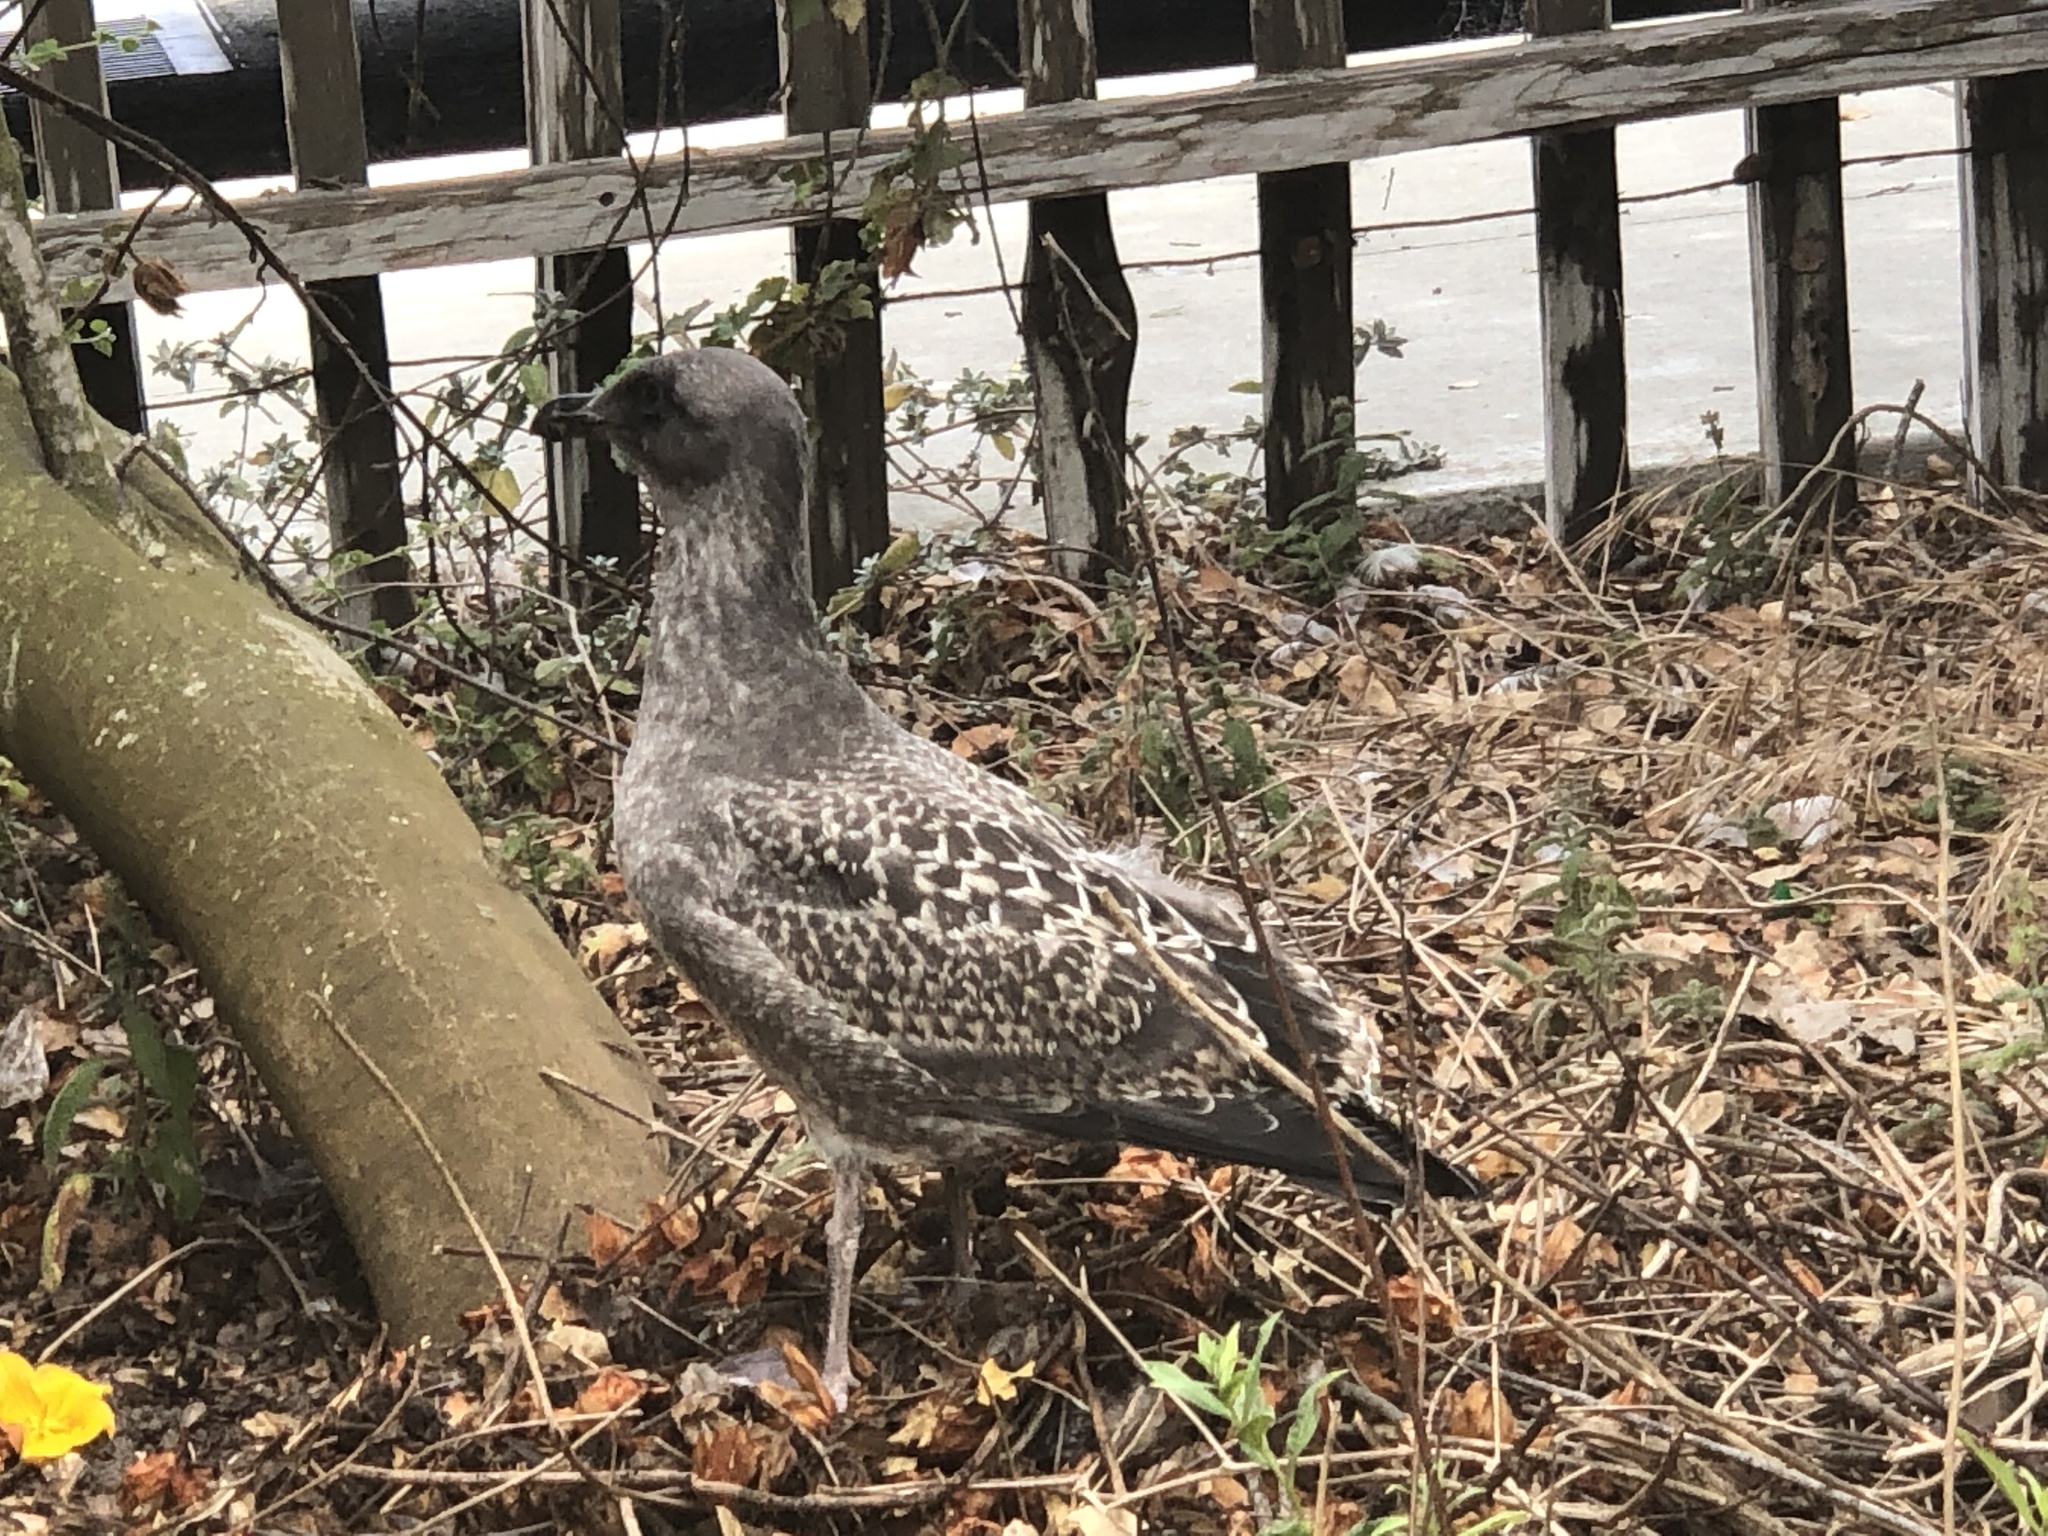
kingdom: Animalia
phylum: Chordata
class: Aves
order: Charadriiformes
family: Laridae
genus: Larus
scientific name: Larus occidentalis
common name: Western gull
